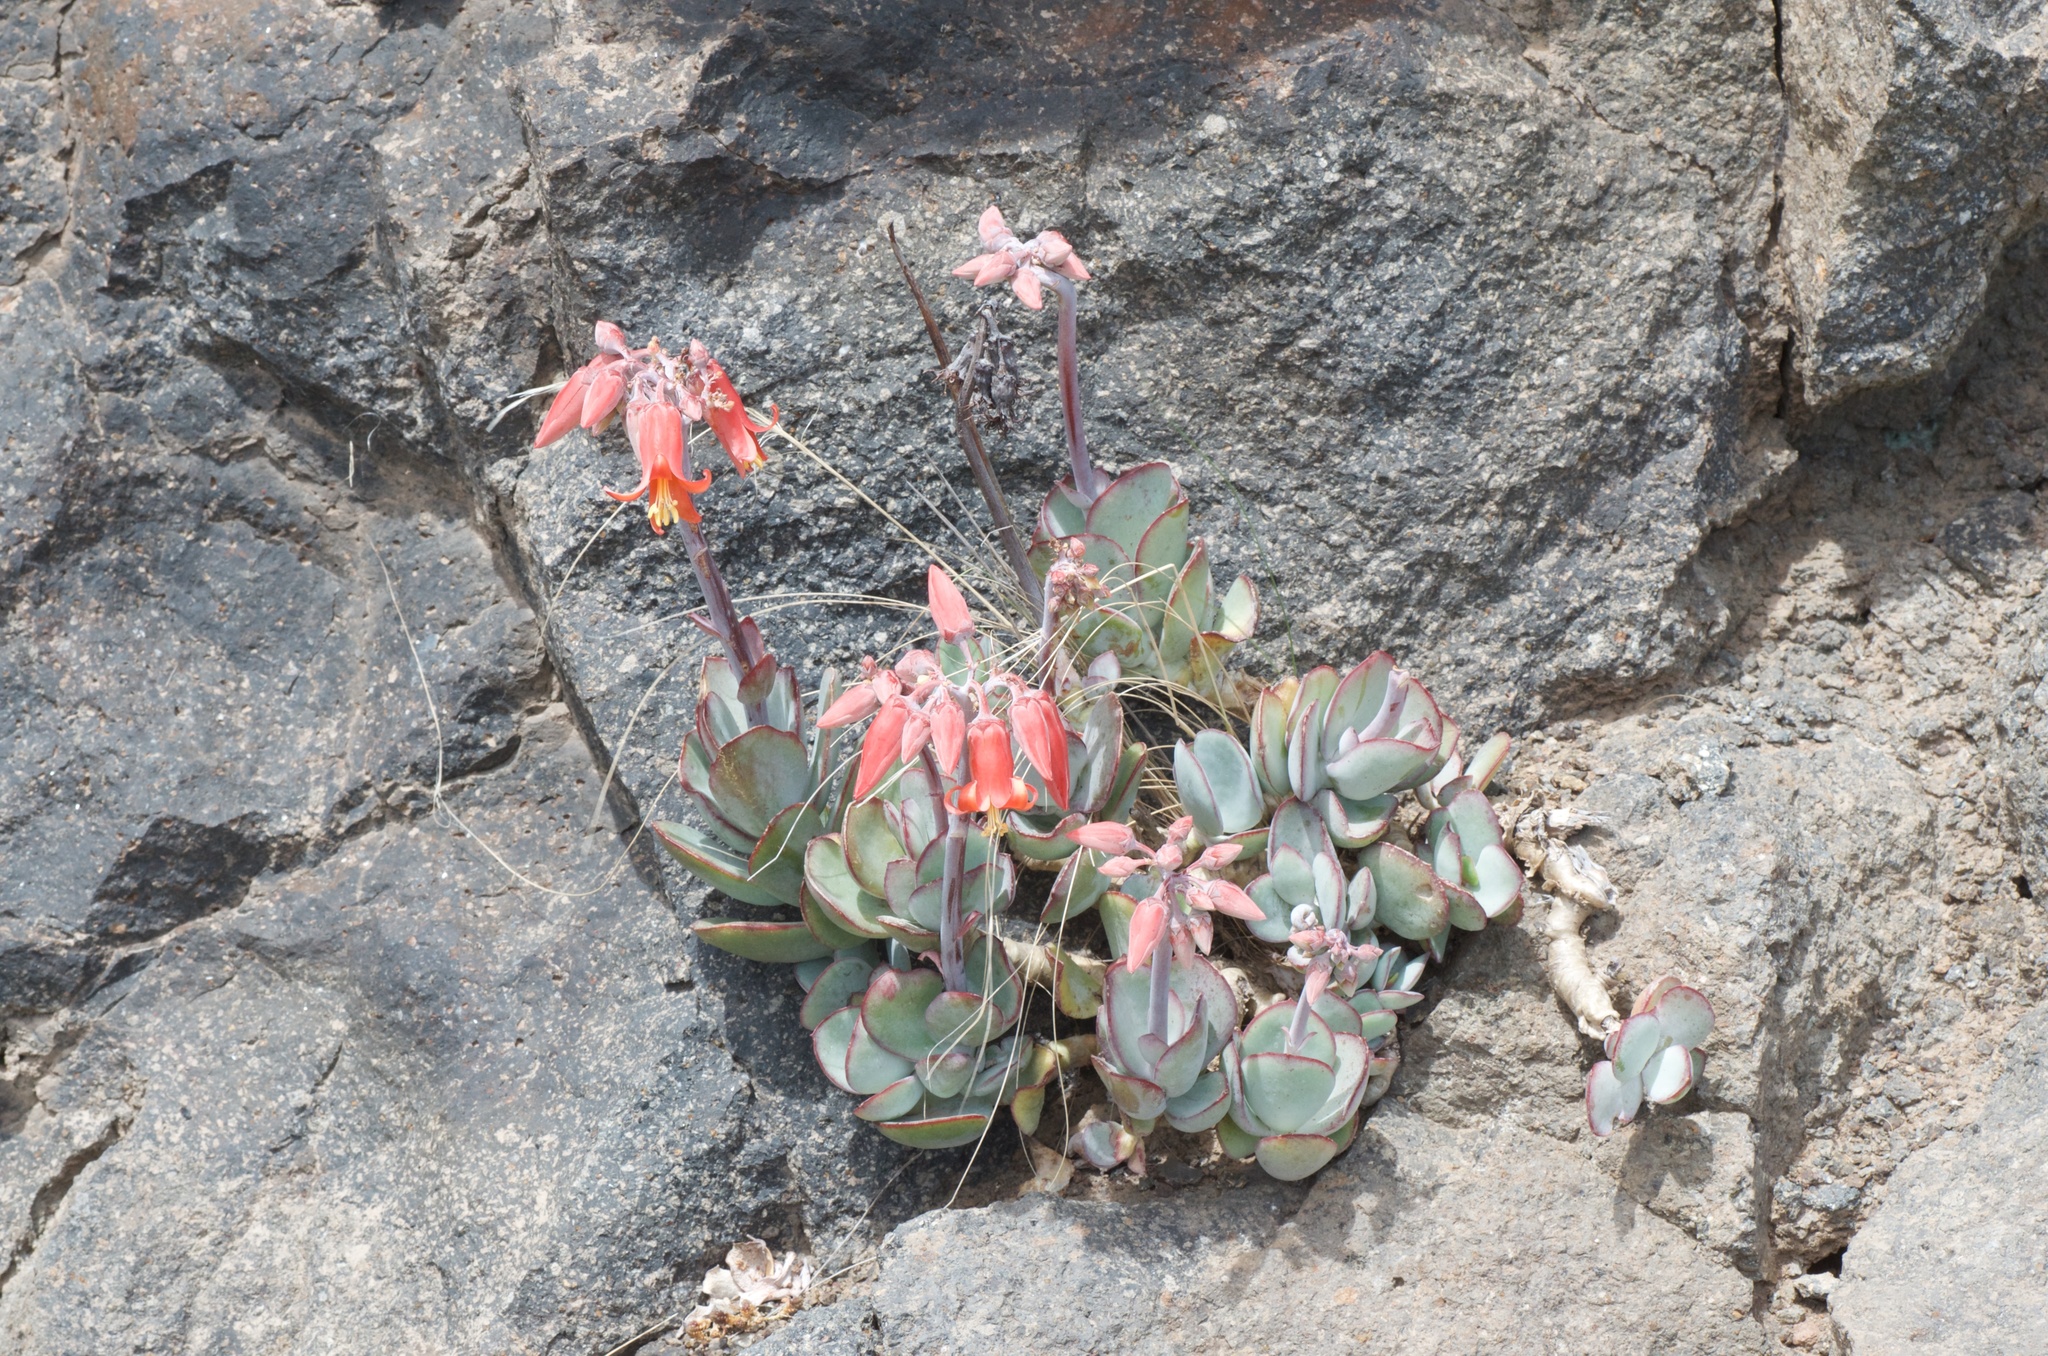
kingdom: Plantae
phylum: Tracheophyta
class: Magnoliopsida
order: Saxifragales
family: Crassulaceae
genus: Cotyledon
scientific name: Cotyledon orbiculata
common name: Pig's ear
